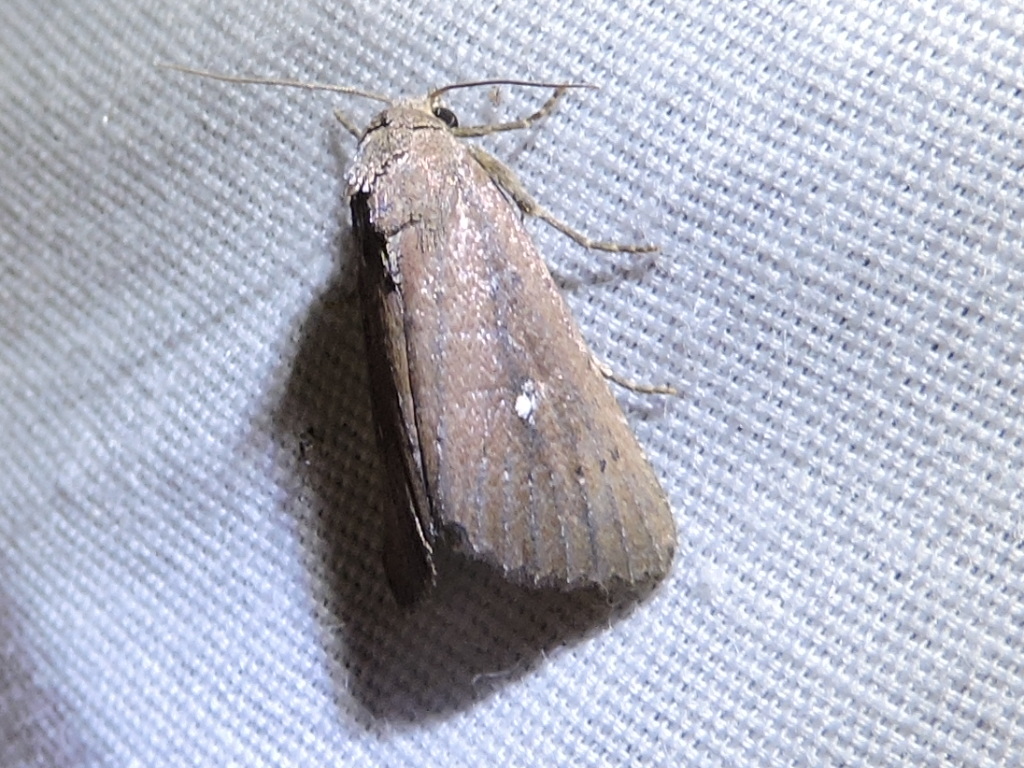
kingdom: Animalia
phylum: Arthropoda
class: Insecta
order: Lepidoptera
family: Noctuidae
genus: Condica
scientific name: Condica videns
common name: White-dotted groundling
